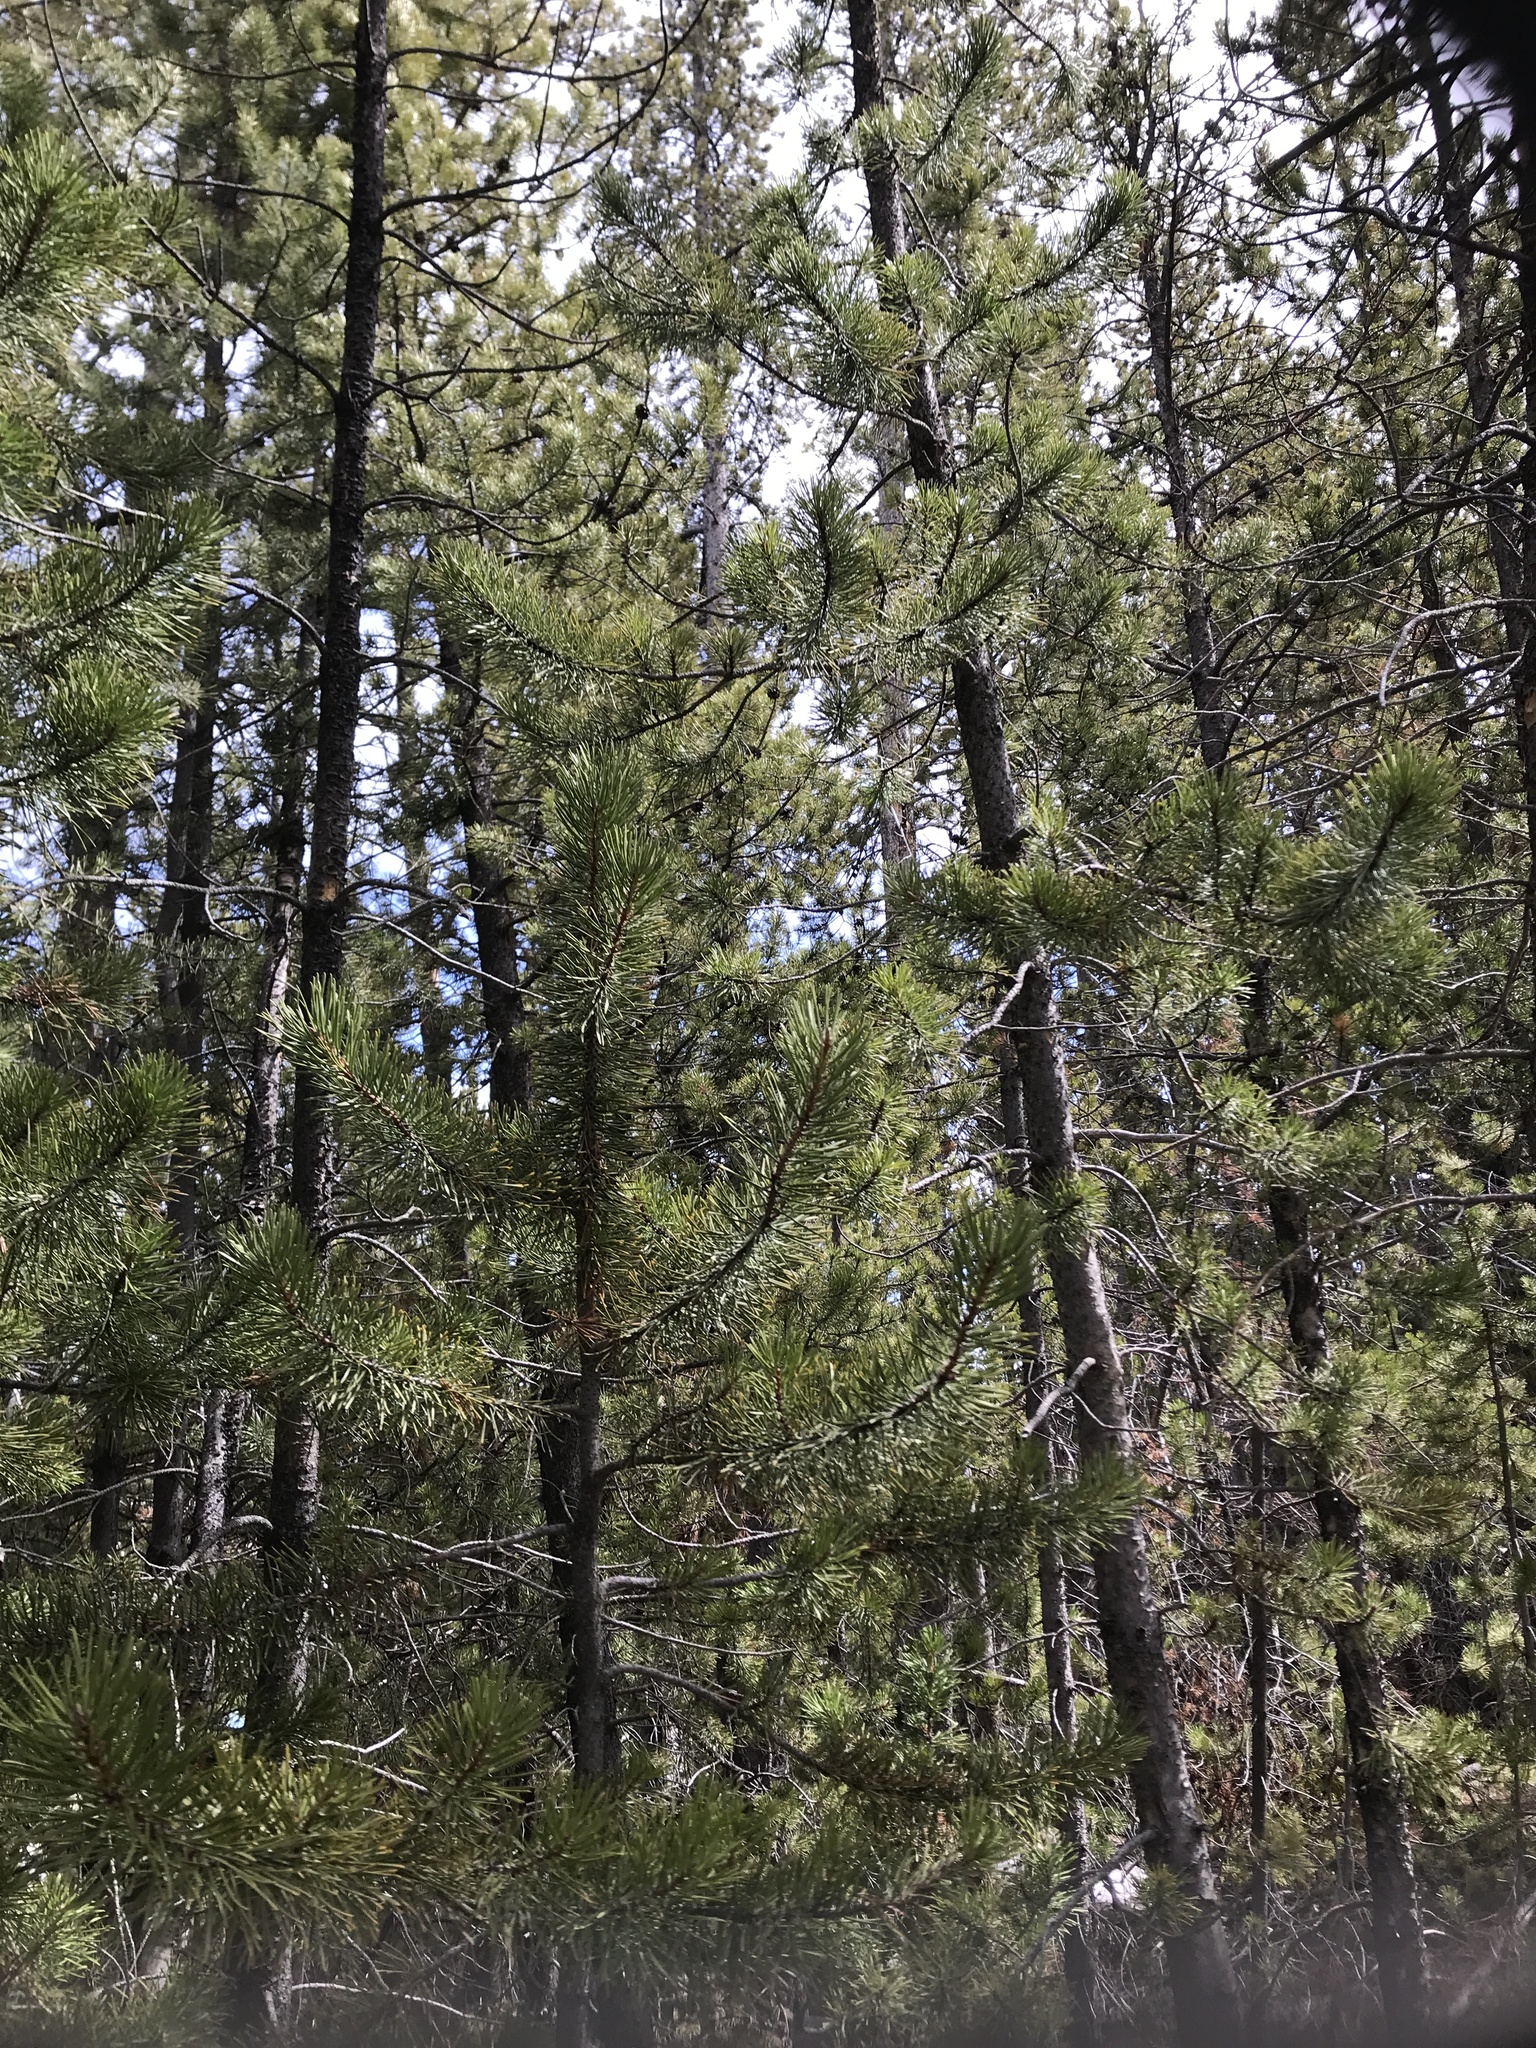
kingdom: Plantae
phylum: Tracheophyta
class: Pinopsida
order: Pinales
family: Pinaceae
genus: Pinus
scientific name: Pinus contorta
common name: Lodgepole pine
